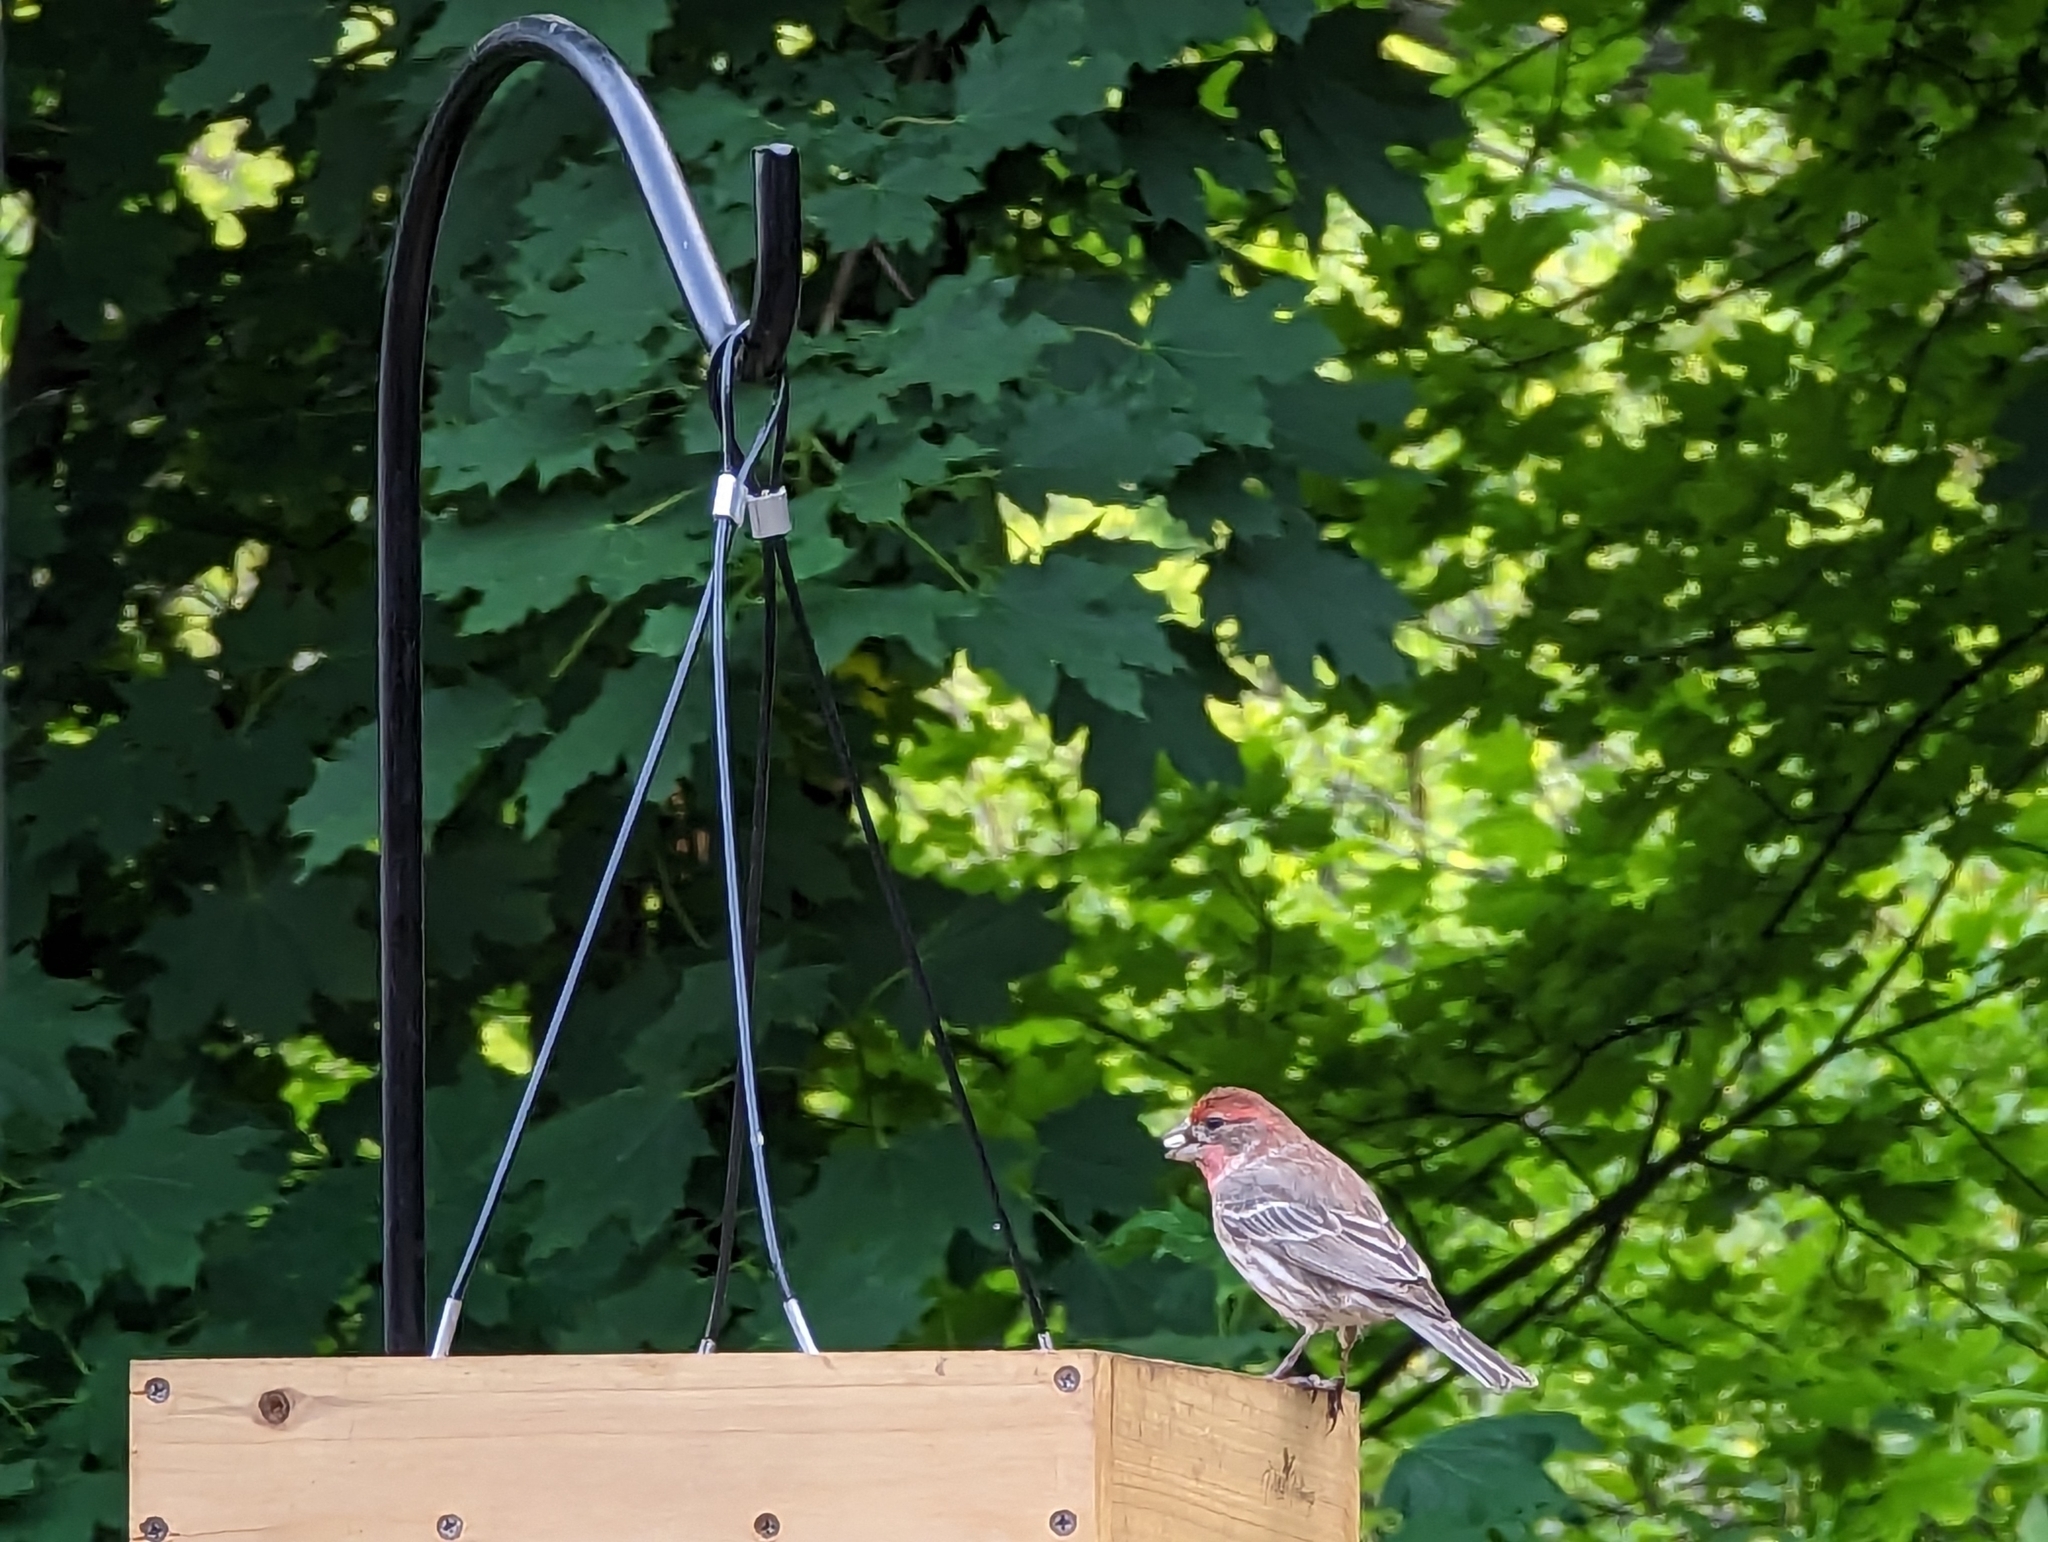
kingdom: Animalia
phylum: Chordata
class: Aves
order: Passeriformes
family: Fringillidae
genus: Haemorhous
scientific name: Haemorhous mexicanus
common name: House finch
